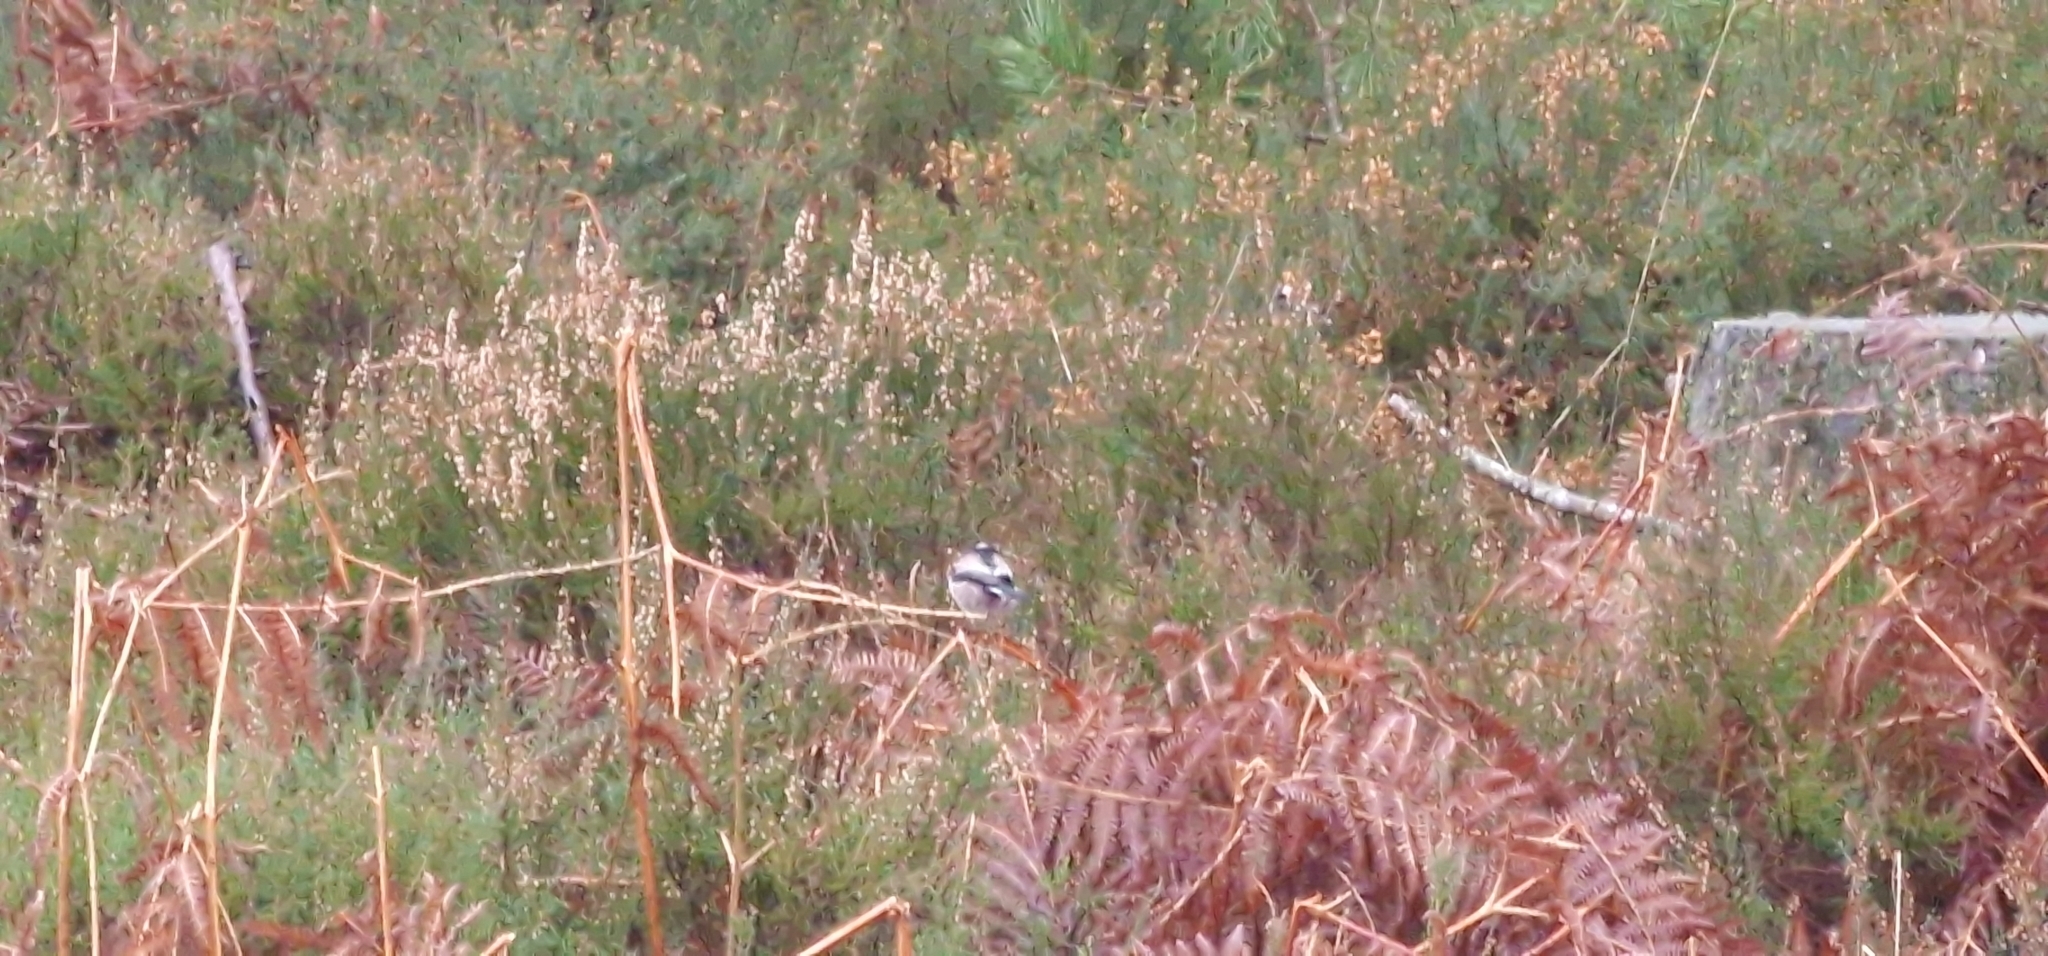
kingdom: Animalia
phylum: Chordata
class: Aves
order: Passeriformes
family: Aegithalidae
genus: Aegithalos
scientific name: Aegithalos caudatus
